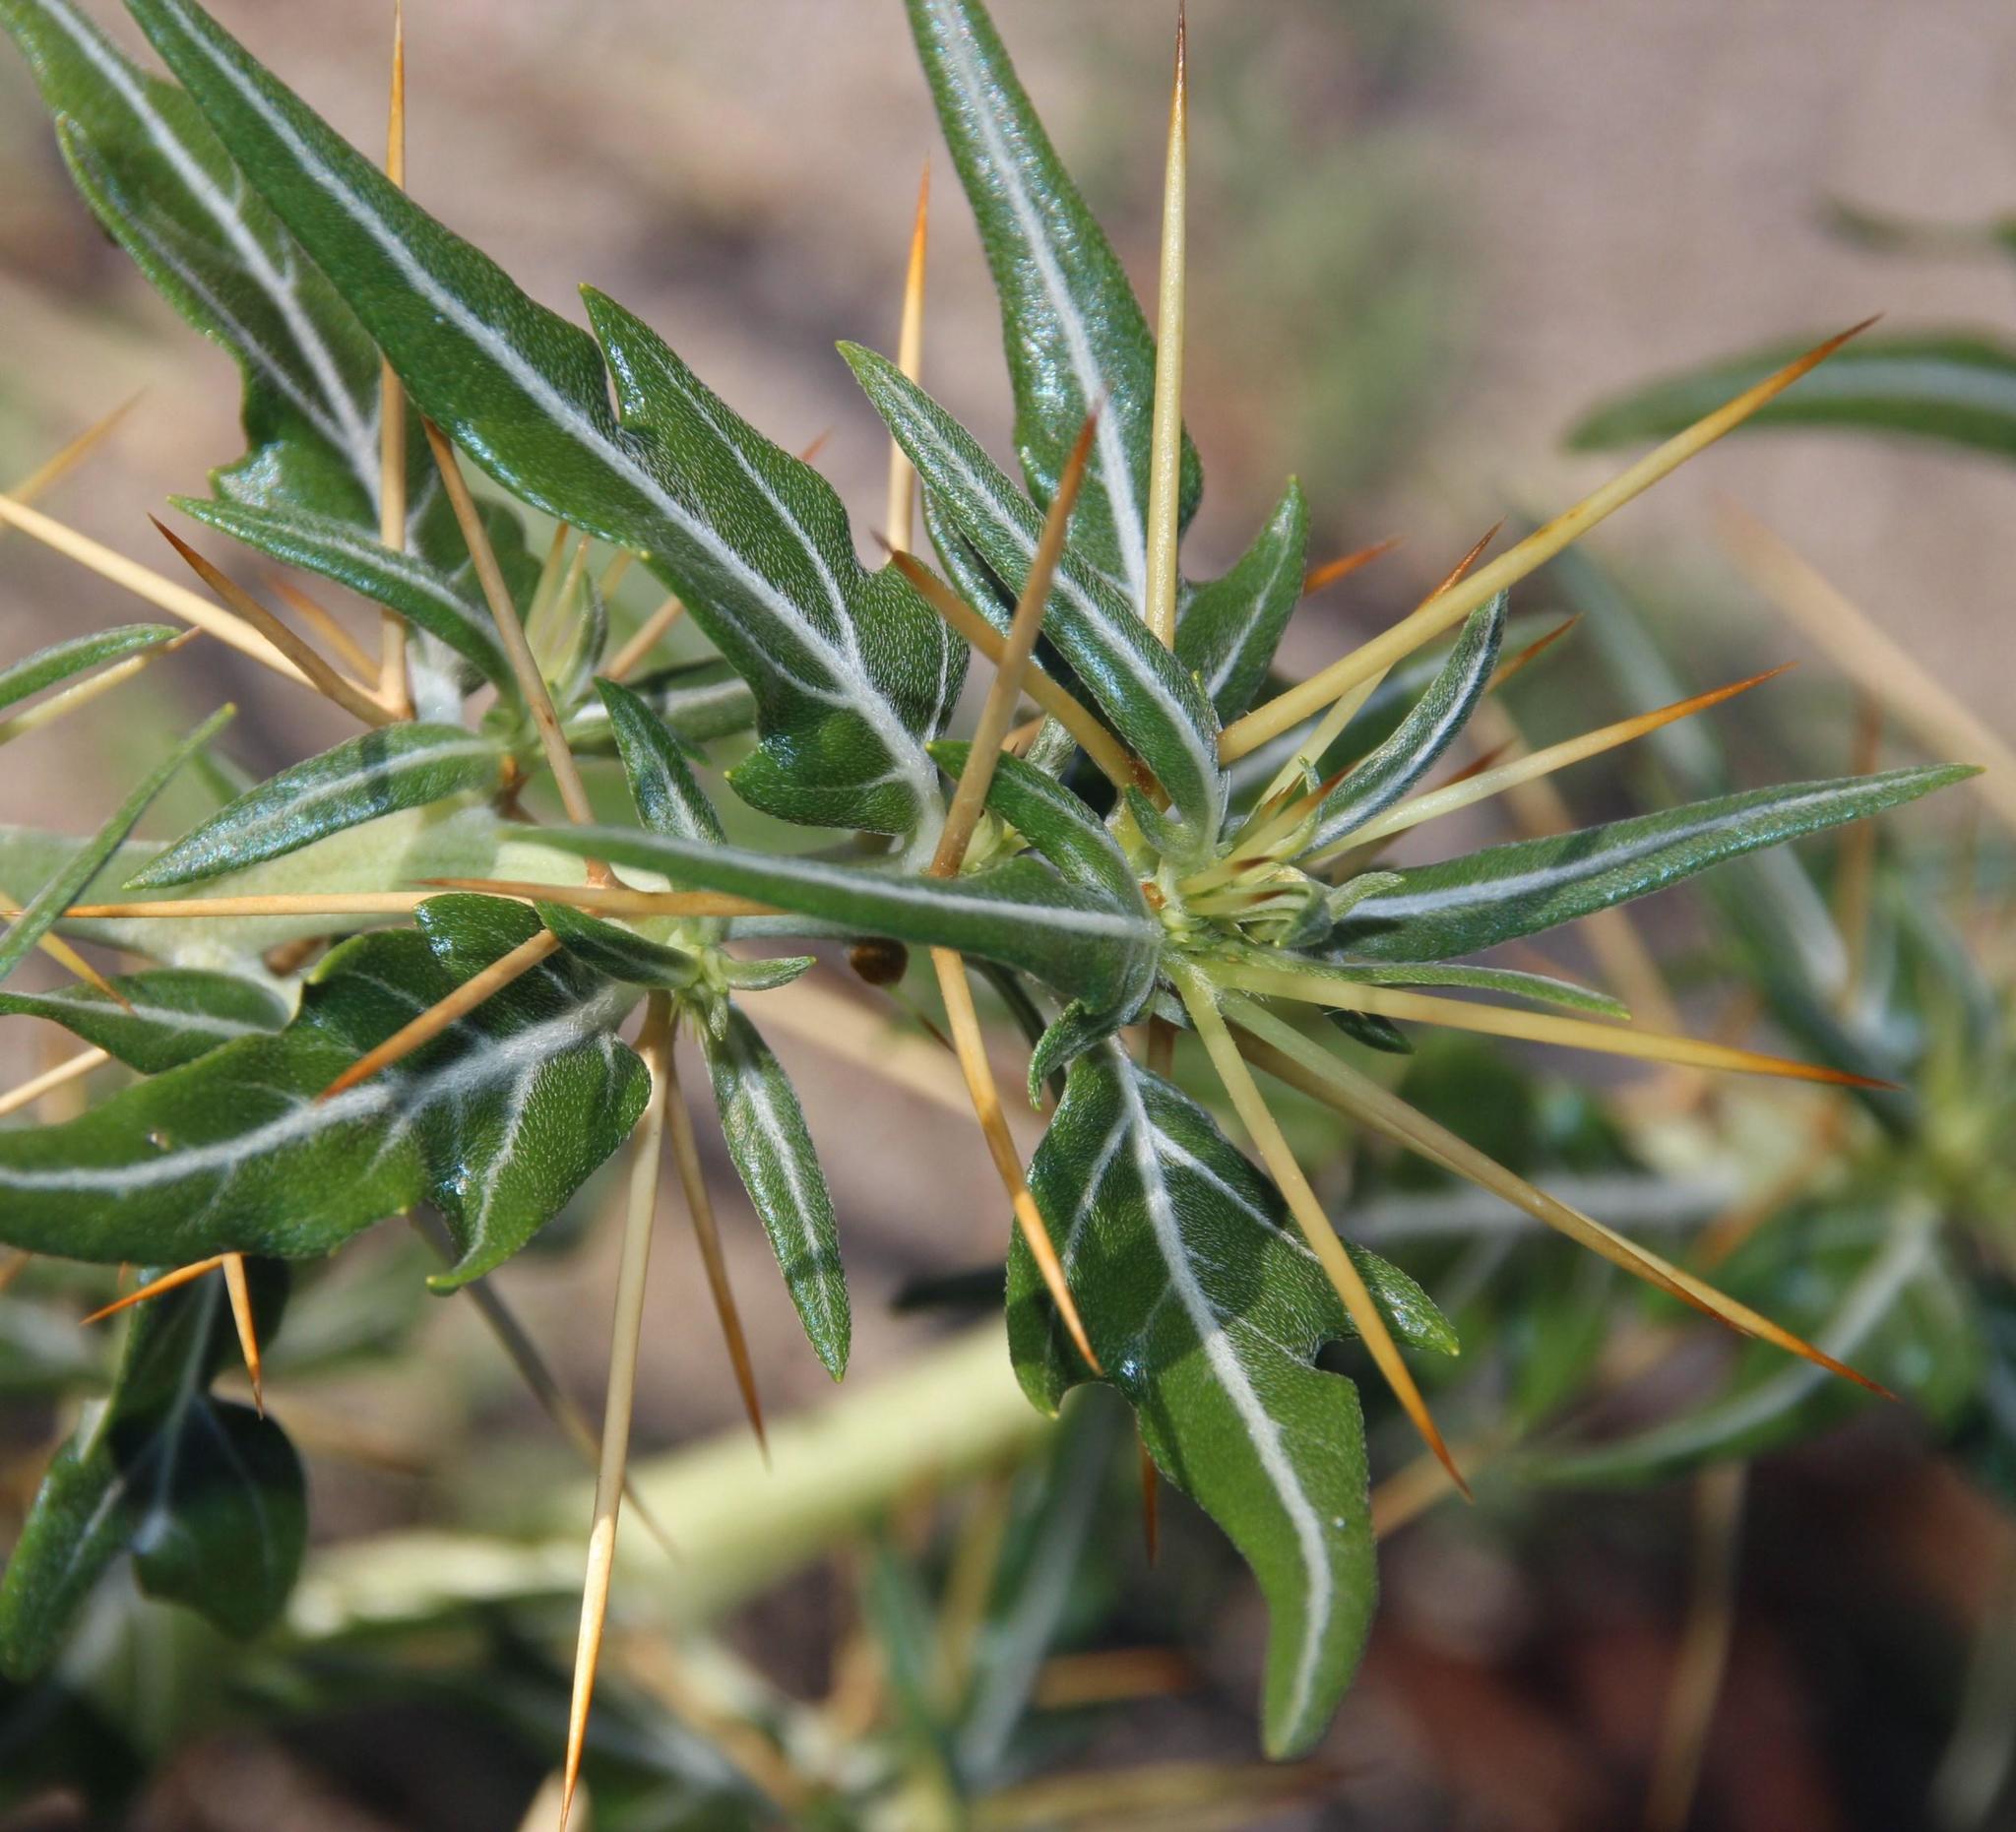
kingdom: Plantae
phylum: Tracheophyta
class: Magnoliopsida
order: Asterales
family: Asteraceae
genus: Xanthium
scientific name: Xanthium spinosum
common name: Spiny cocklebur
